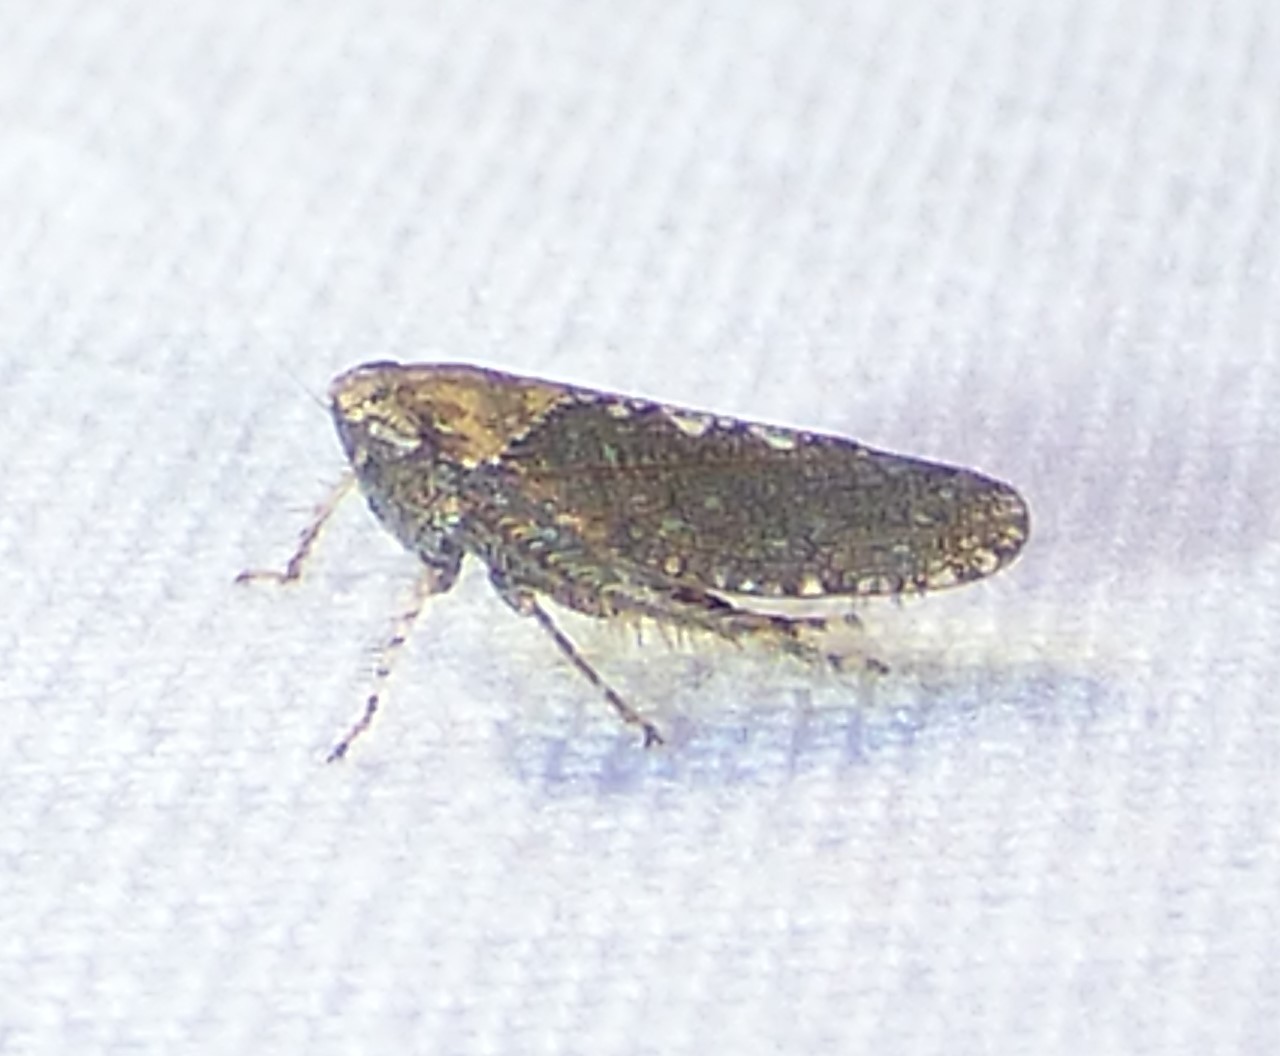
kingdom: Animalia
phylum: Arthropoda
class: Insecta
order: Hemiptera
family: Cicadellidae
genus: Excultanus
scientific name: Excultanus excultus
